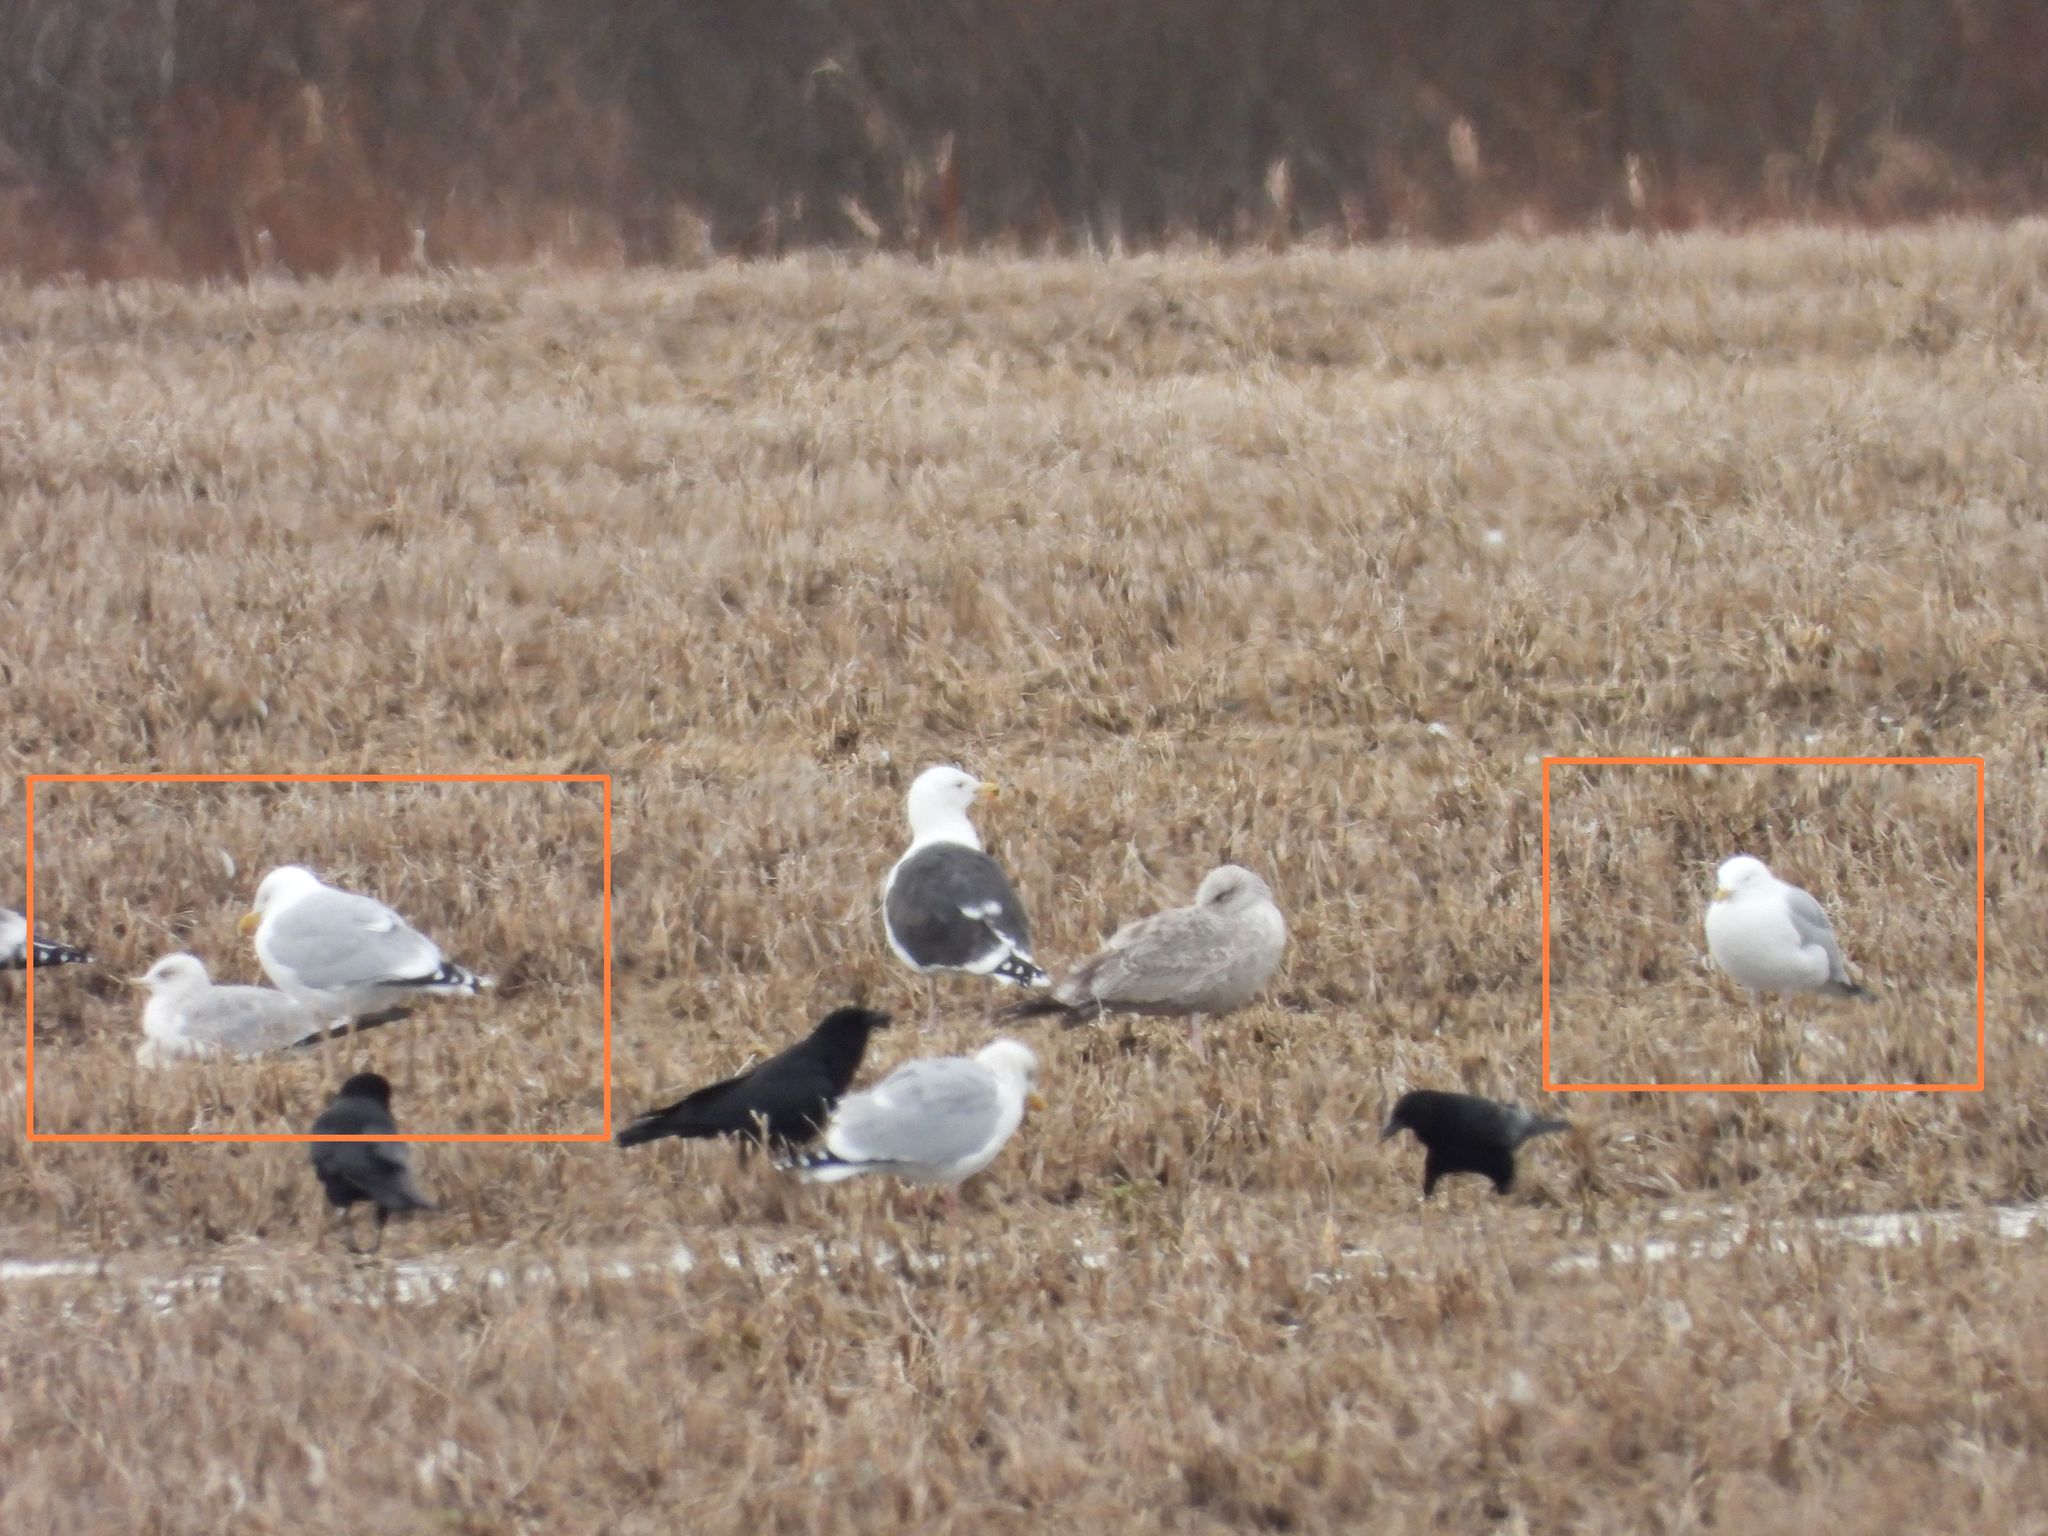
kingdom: Animalia
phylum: Chordata
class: Aves
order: Charadriiformes
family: Laridae
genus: Larus
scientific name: Larus argentatus
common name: Herring gull
